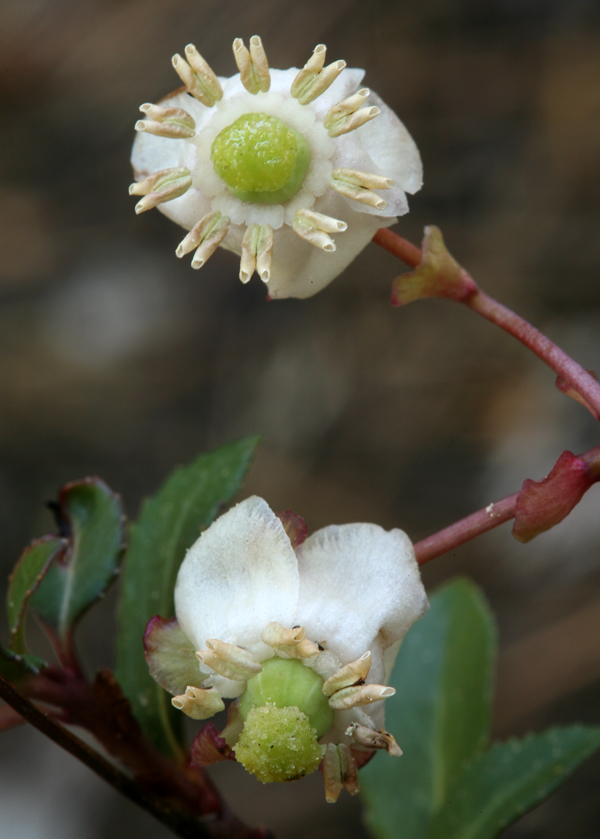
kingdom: Plantae
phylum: Tracheophyta
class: Magnoliopsida
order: Ericales
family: Ericaceae
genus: Chimaphila
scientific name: Chimaphila menziesii
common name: Menzies' pipsissewa
